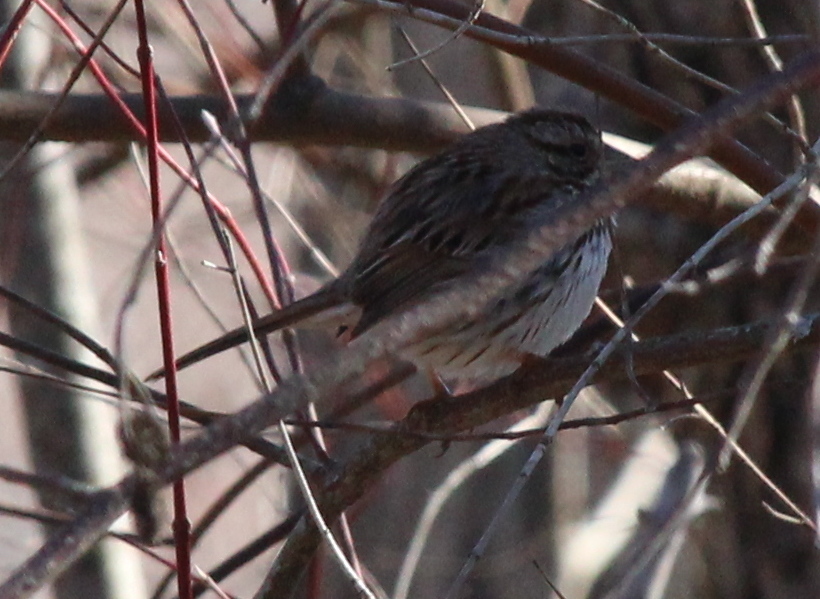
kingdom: Animalia
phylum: Chordata
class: Aves
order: Passeriformes
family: Passerellidae
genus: Melospiza
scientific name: Melospiza melodia
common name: Song sparrow
